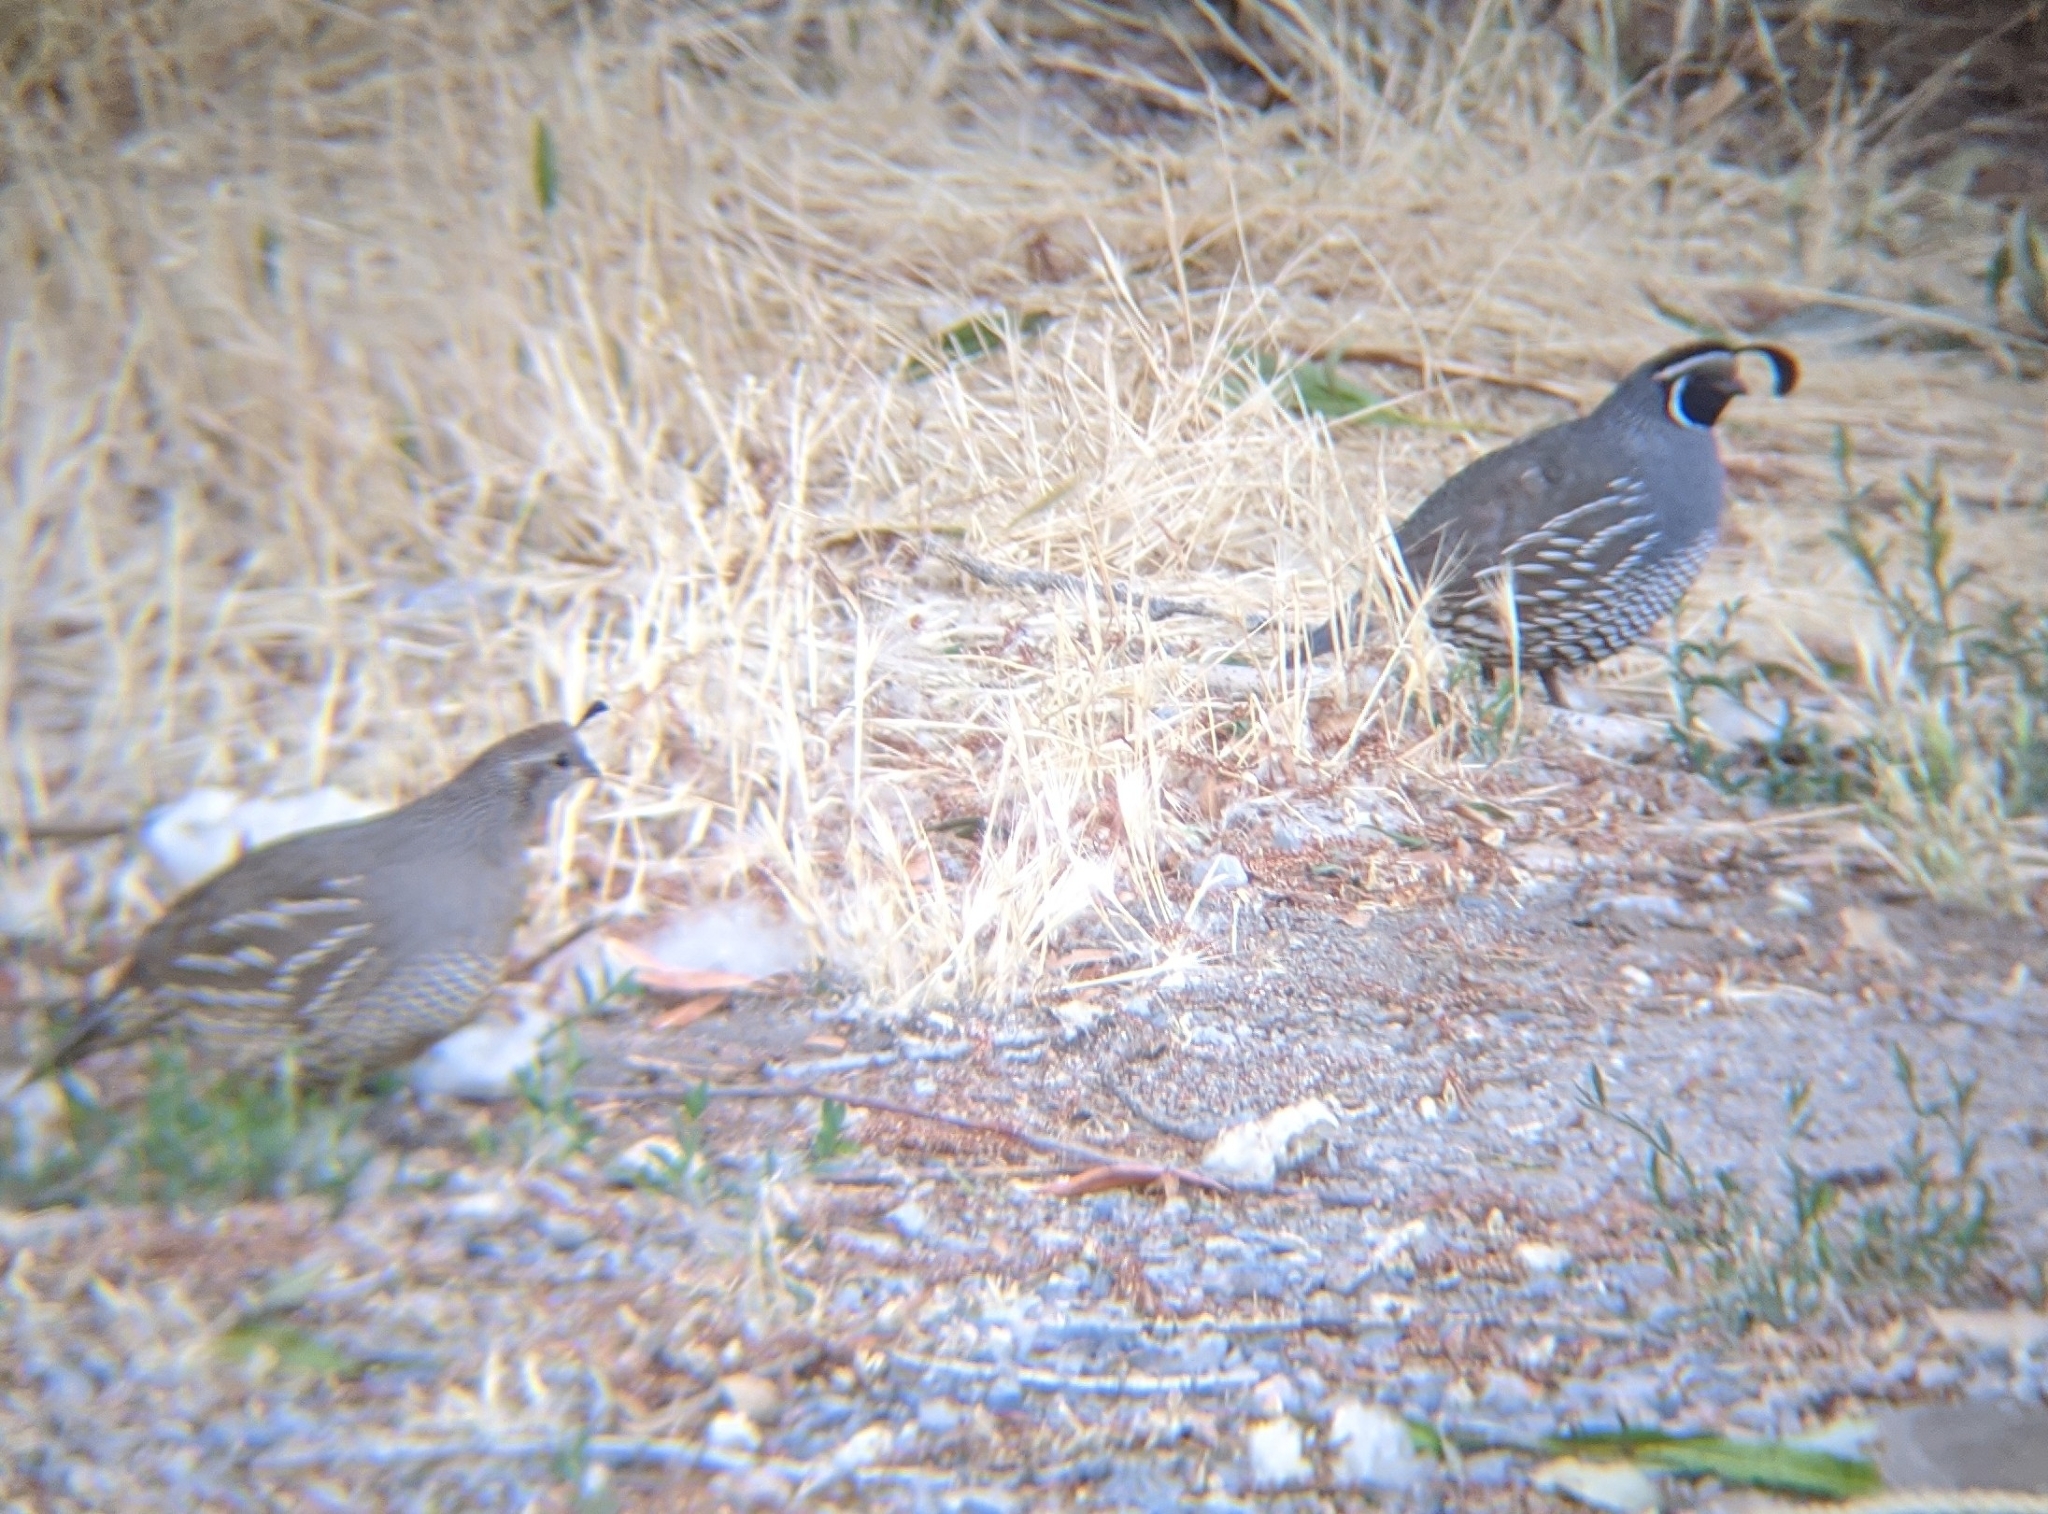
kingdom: Animalia
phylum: Chordata
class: Aves
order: Galliformes
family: Odontophoridae
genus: Callipepla
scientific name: Callipepla californica
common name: California quail
